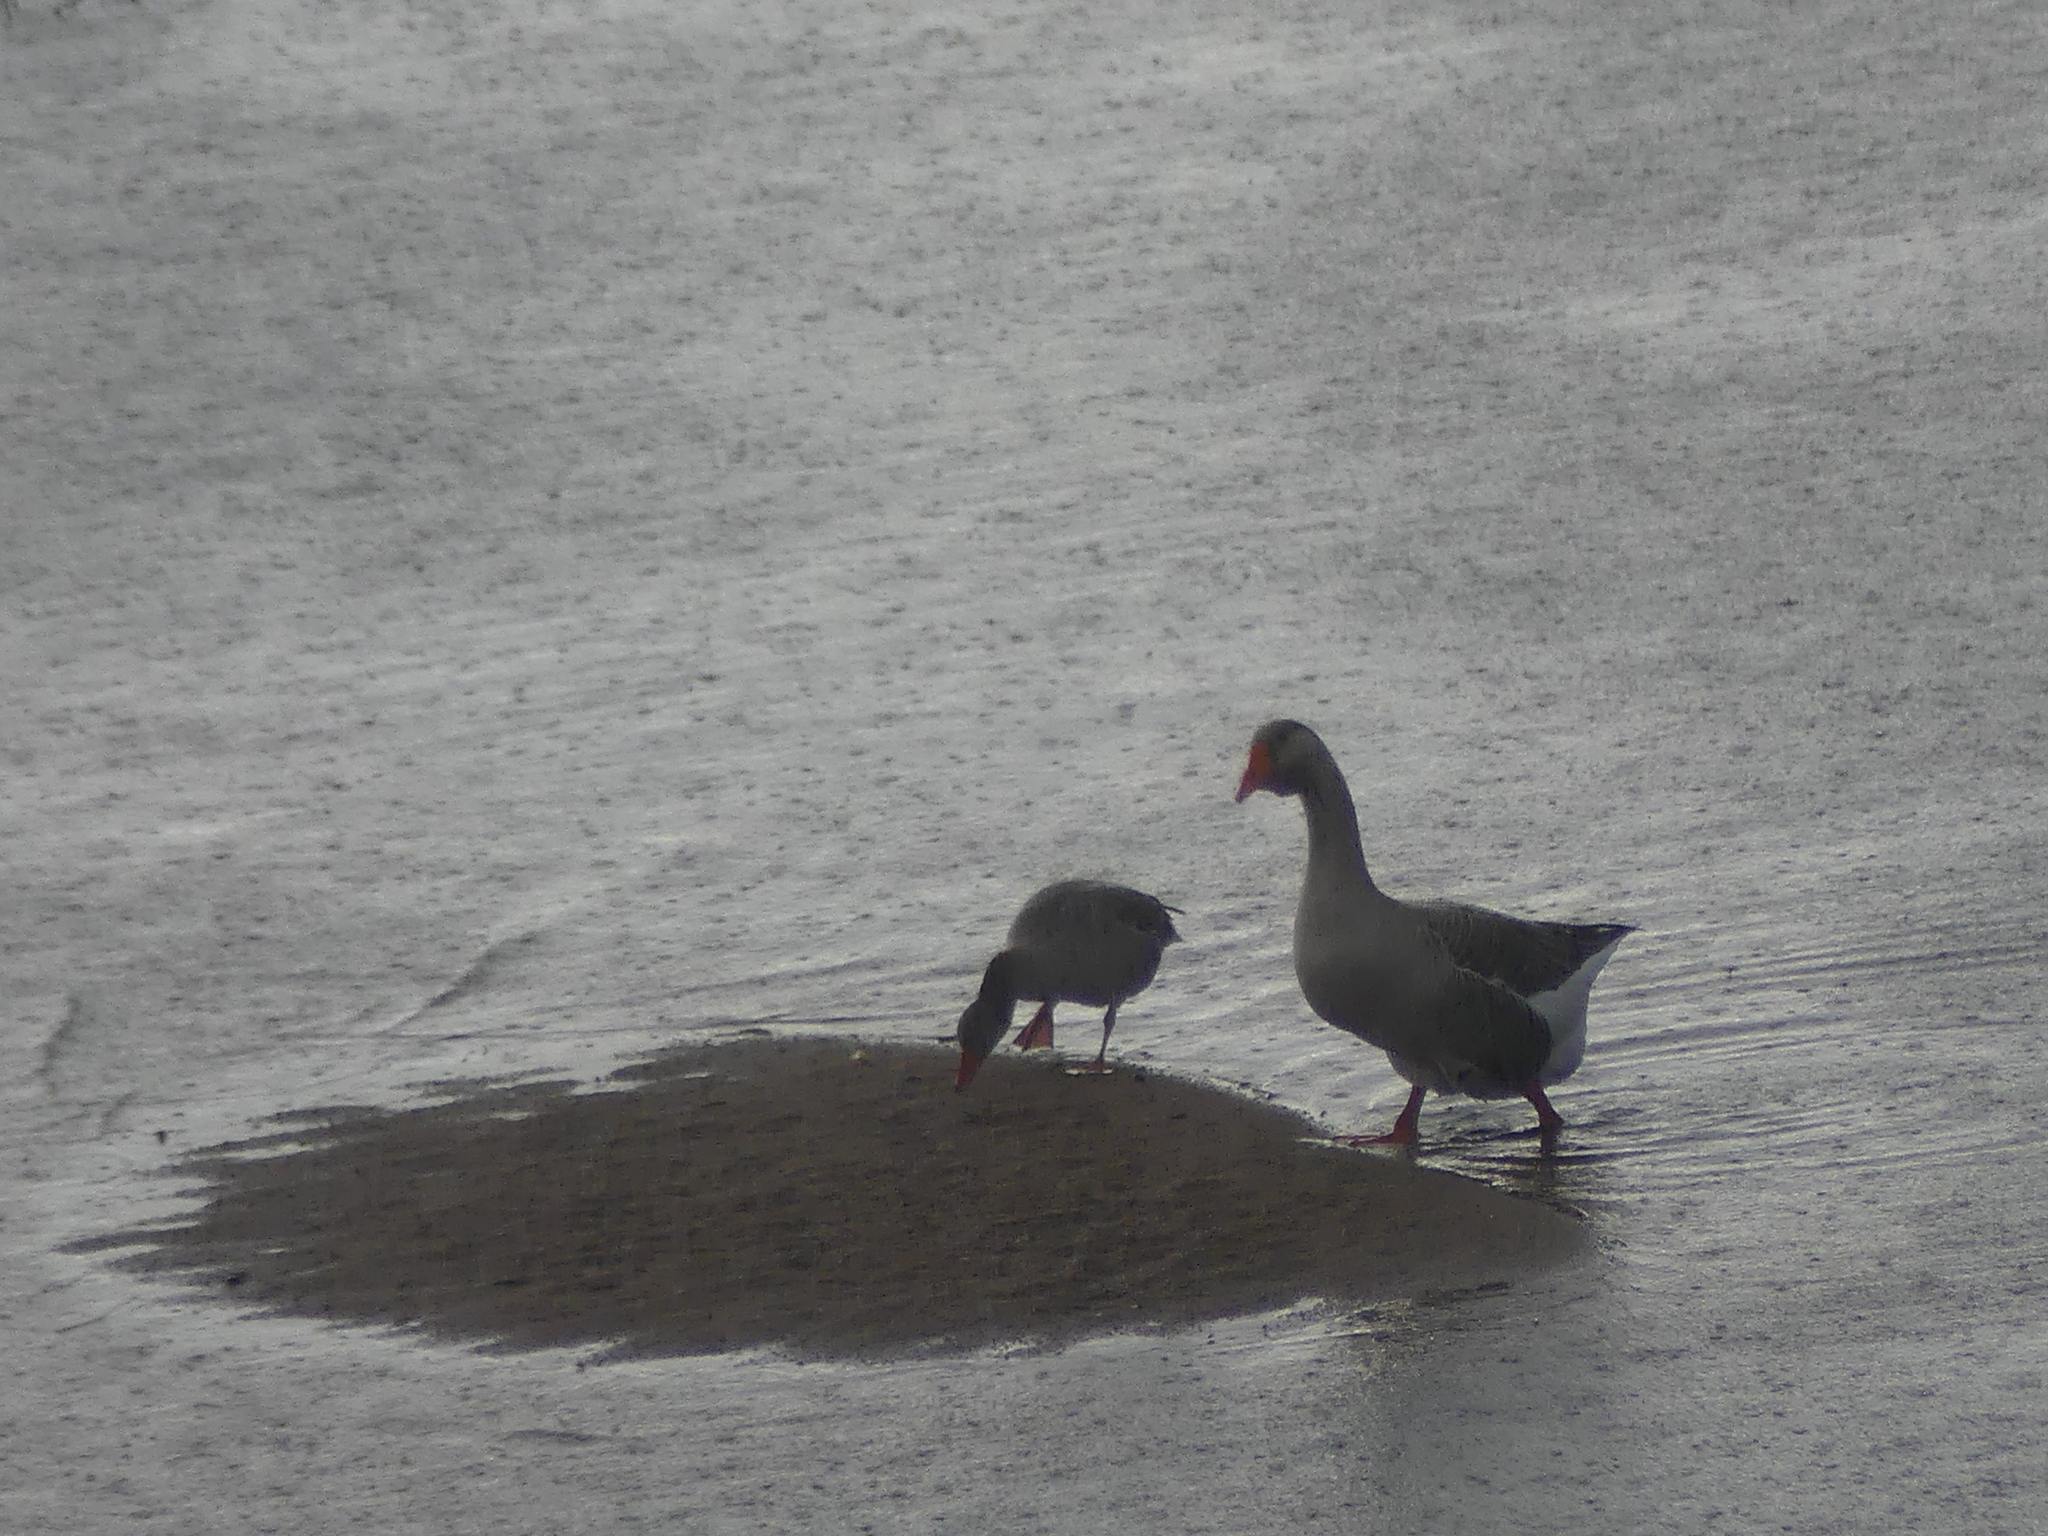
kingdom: Animalia
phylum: Chordata
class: Aves
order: Anseriformes
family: Anatidae
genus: Anser
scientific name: Anser anser
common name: Greylag goose
